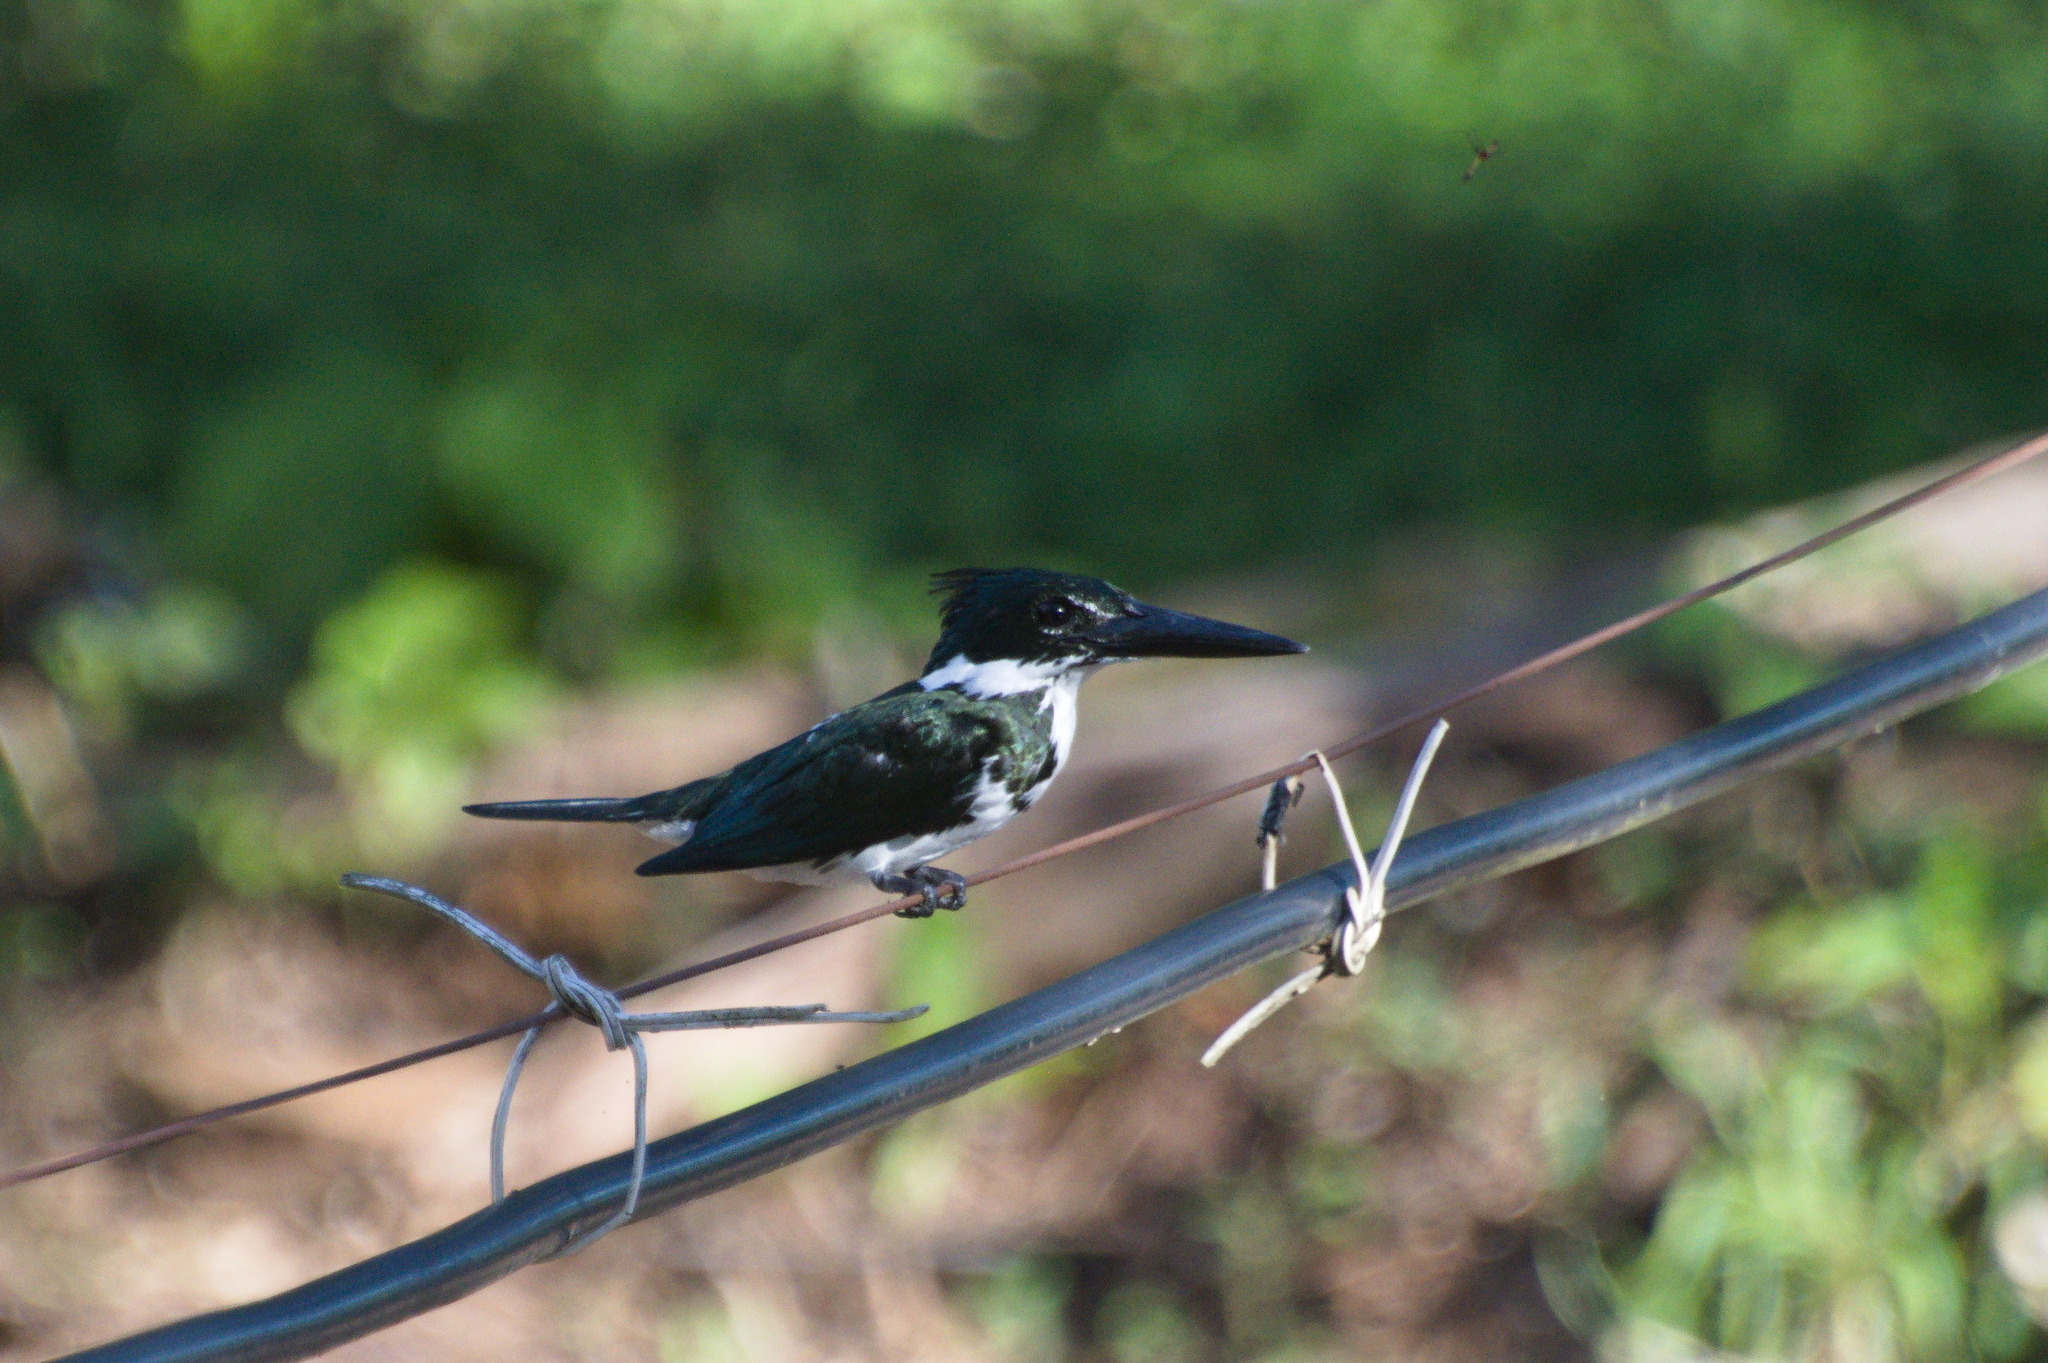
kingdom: Animalia
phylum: Chordata
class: Aves
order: Coraciiformes
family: Alcedinidae
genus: Chloroceryle
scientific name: Chloroceryle amazona
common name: Amazon kingfisher
